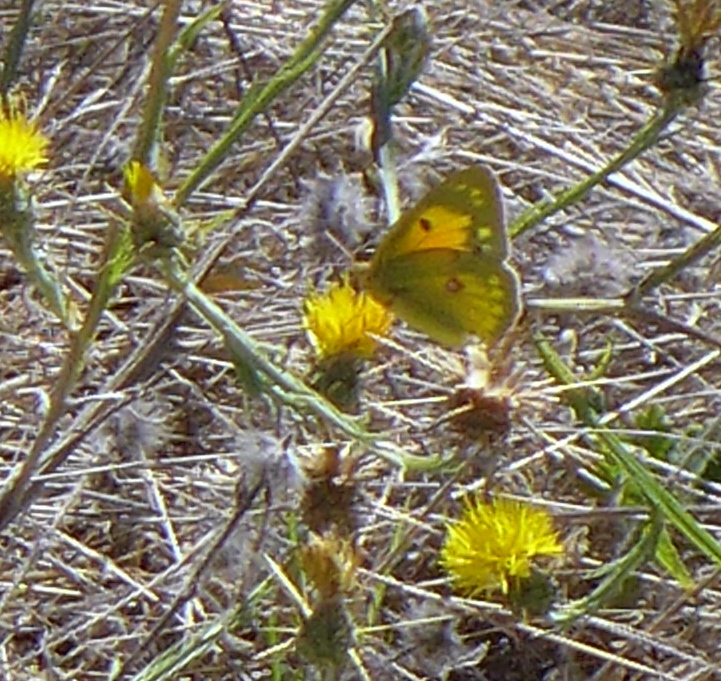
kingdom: Animalia
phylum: Arthropoda
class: Insecta
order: Lepidoptera
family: Pieridae
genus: Colias
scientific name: Colias eurytheme
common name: Alfalfa butterfly
